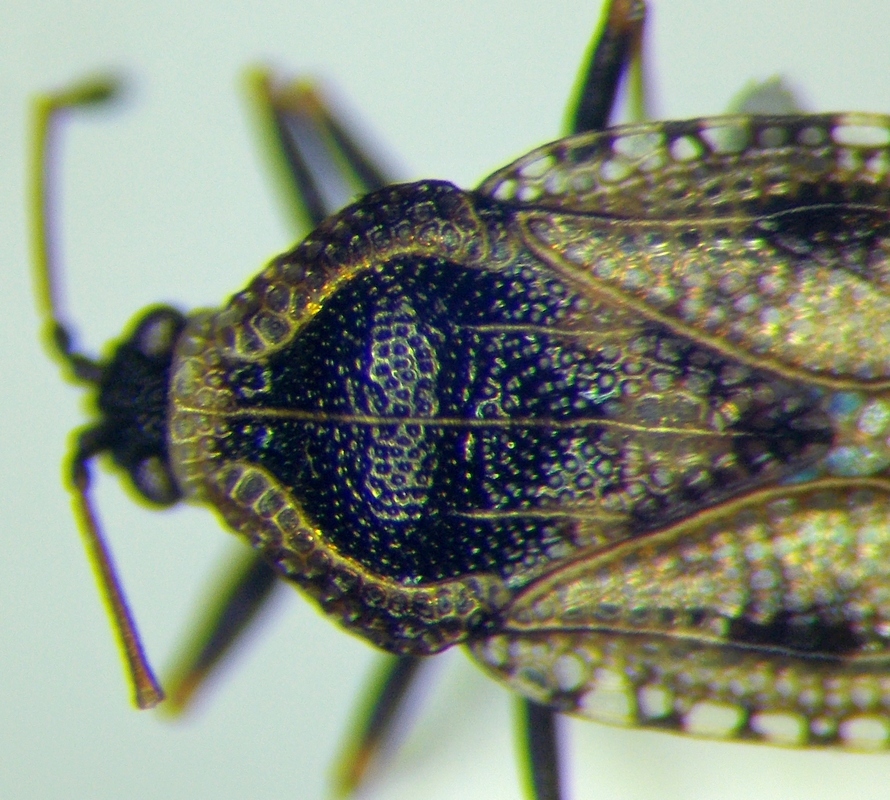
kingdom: Animalia
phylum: Arthropoda
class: Insecta
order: Hemiptera
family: Tingidae
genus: Dictyla
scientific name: Dictyla echii
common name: Lace bug
